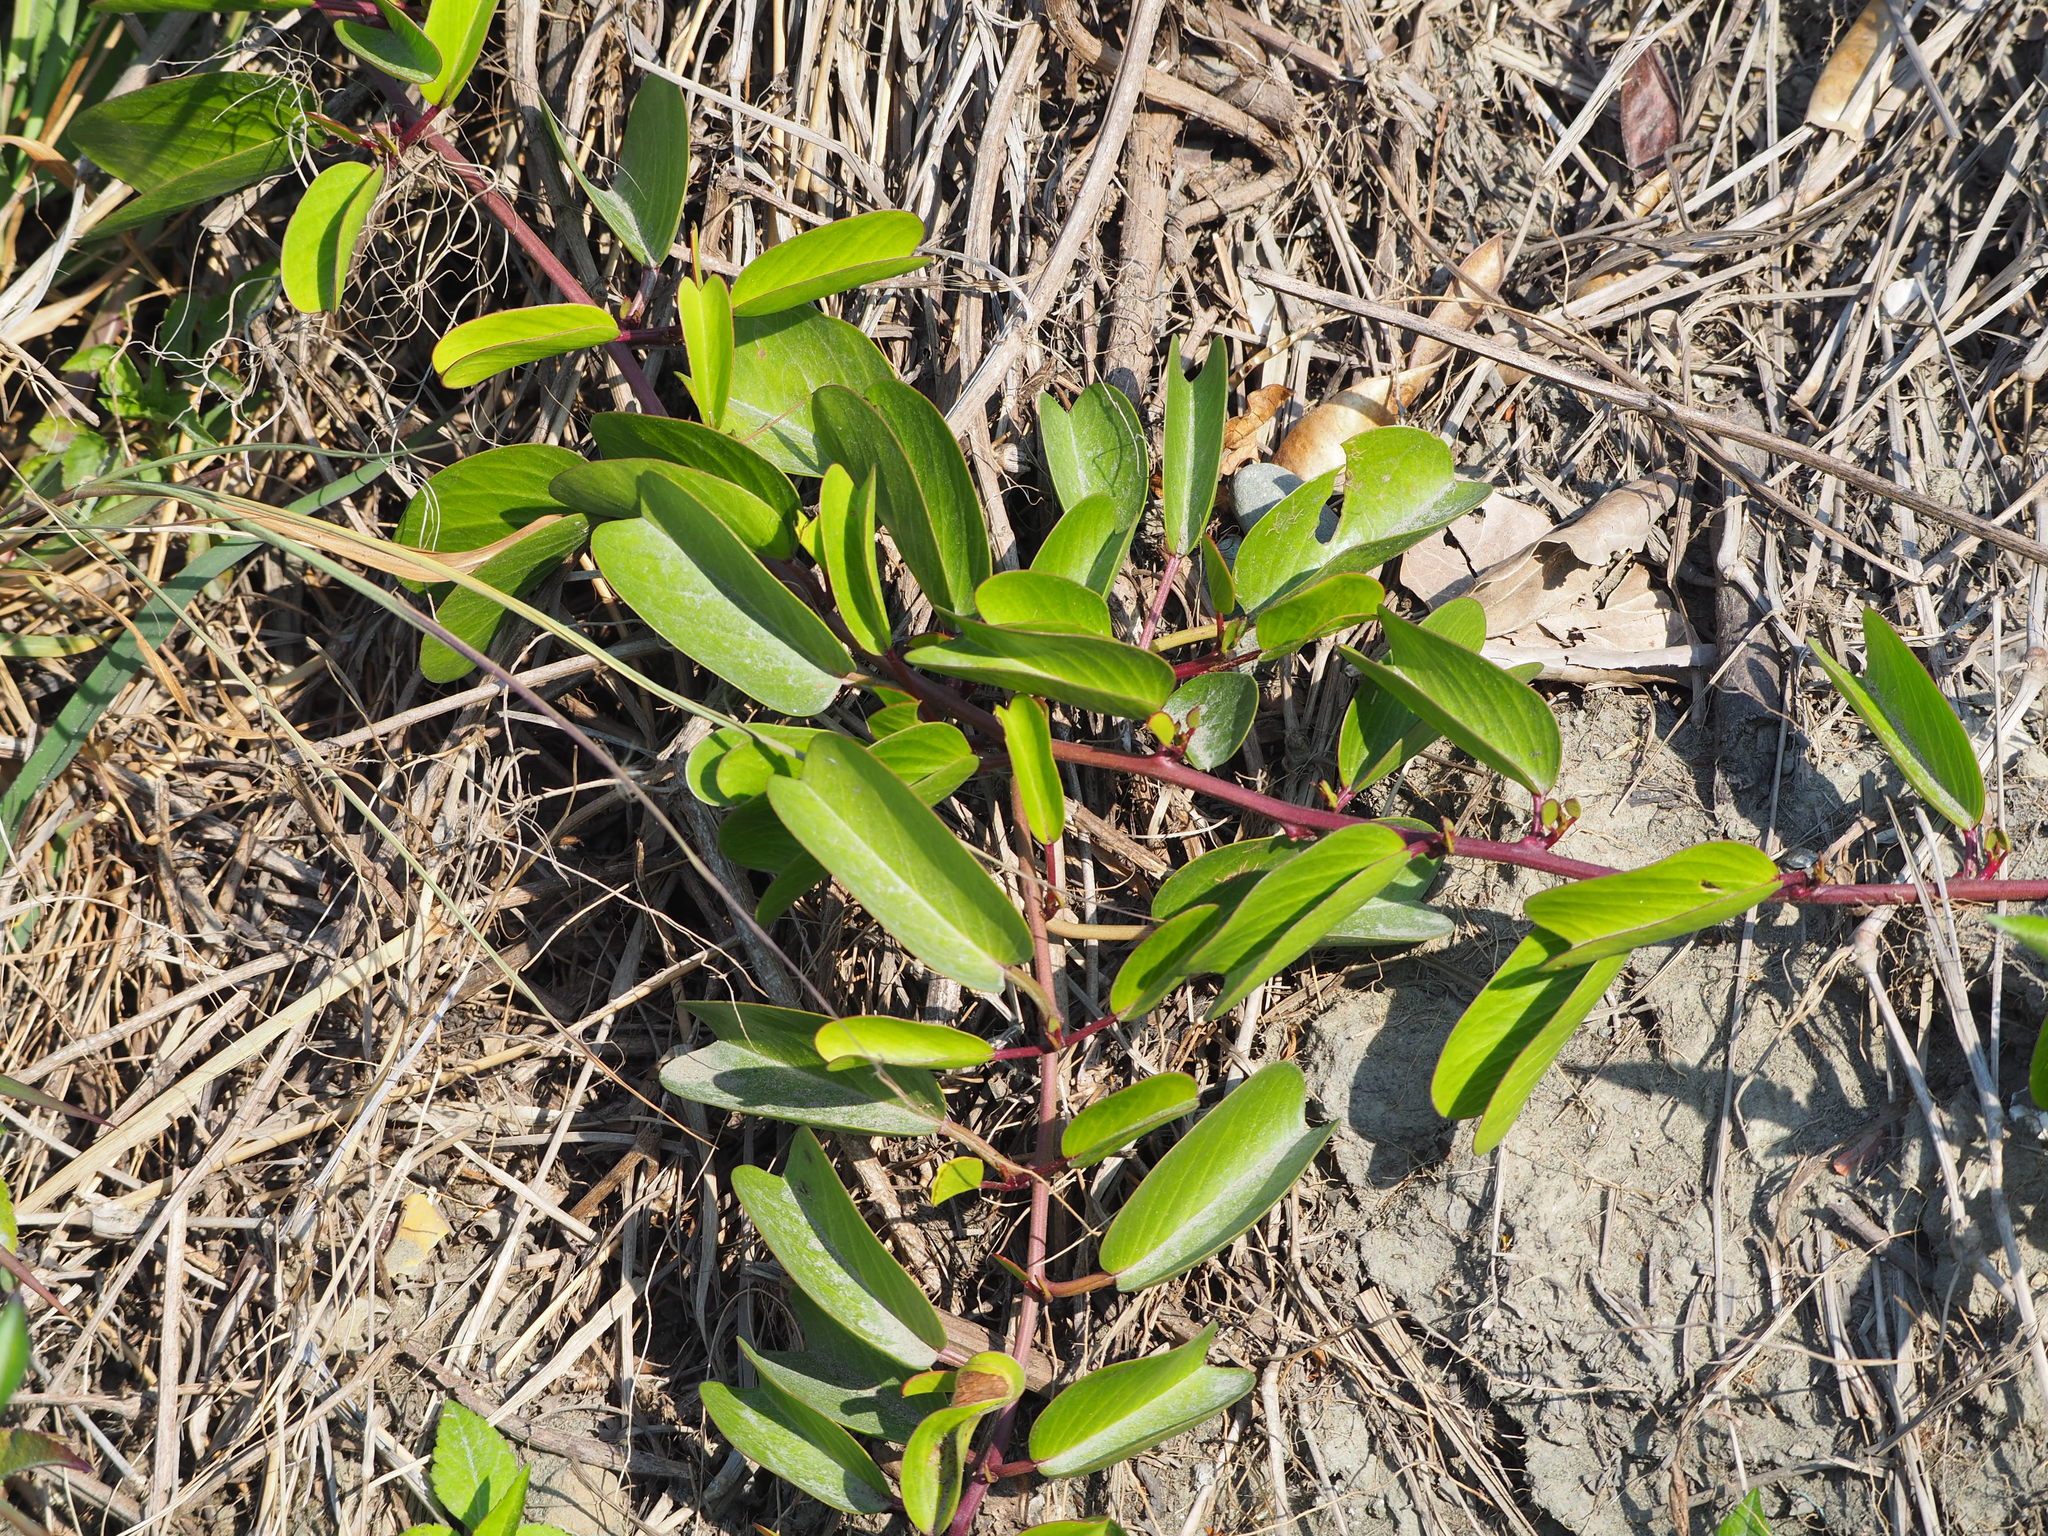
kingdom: Plantae
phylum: Tracheophyta
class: Magnoliopsida
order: Solanales
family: Convolvulaceae
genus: Ipomoea
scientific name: Ipomoea pes-caprae
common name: Beach morning glory
